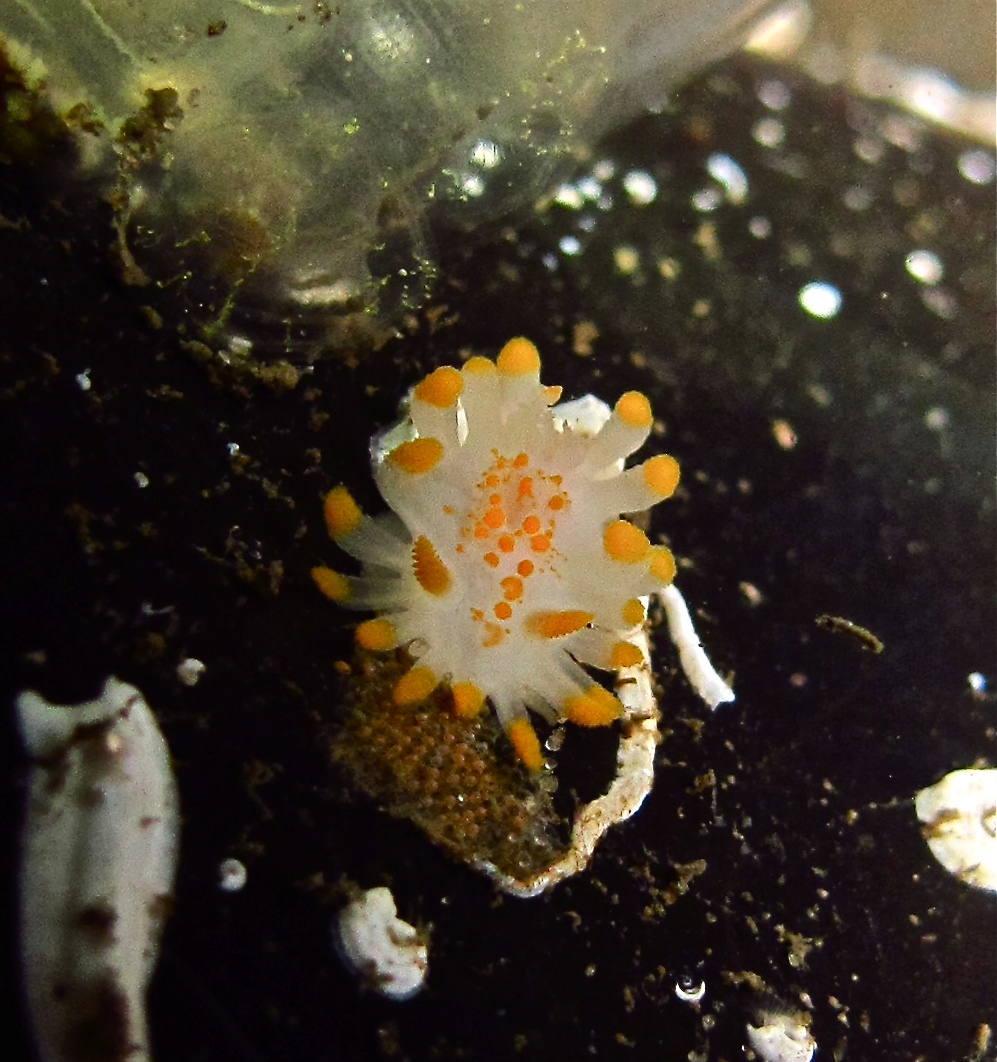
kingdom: Animalia
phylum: Mollusca
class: Gastropoda
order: Nudibranchia
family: Polyceridae
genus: Limacia
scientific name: Limacia clavigera
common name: Orange-clubbed sea slug
